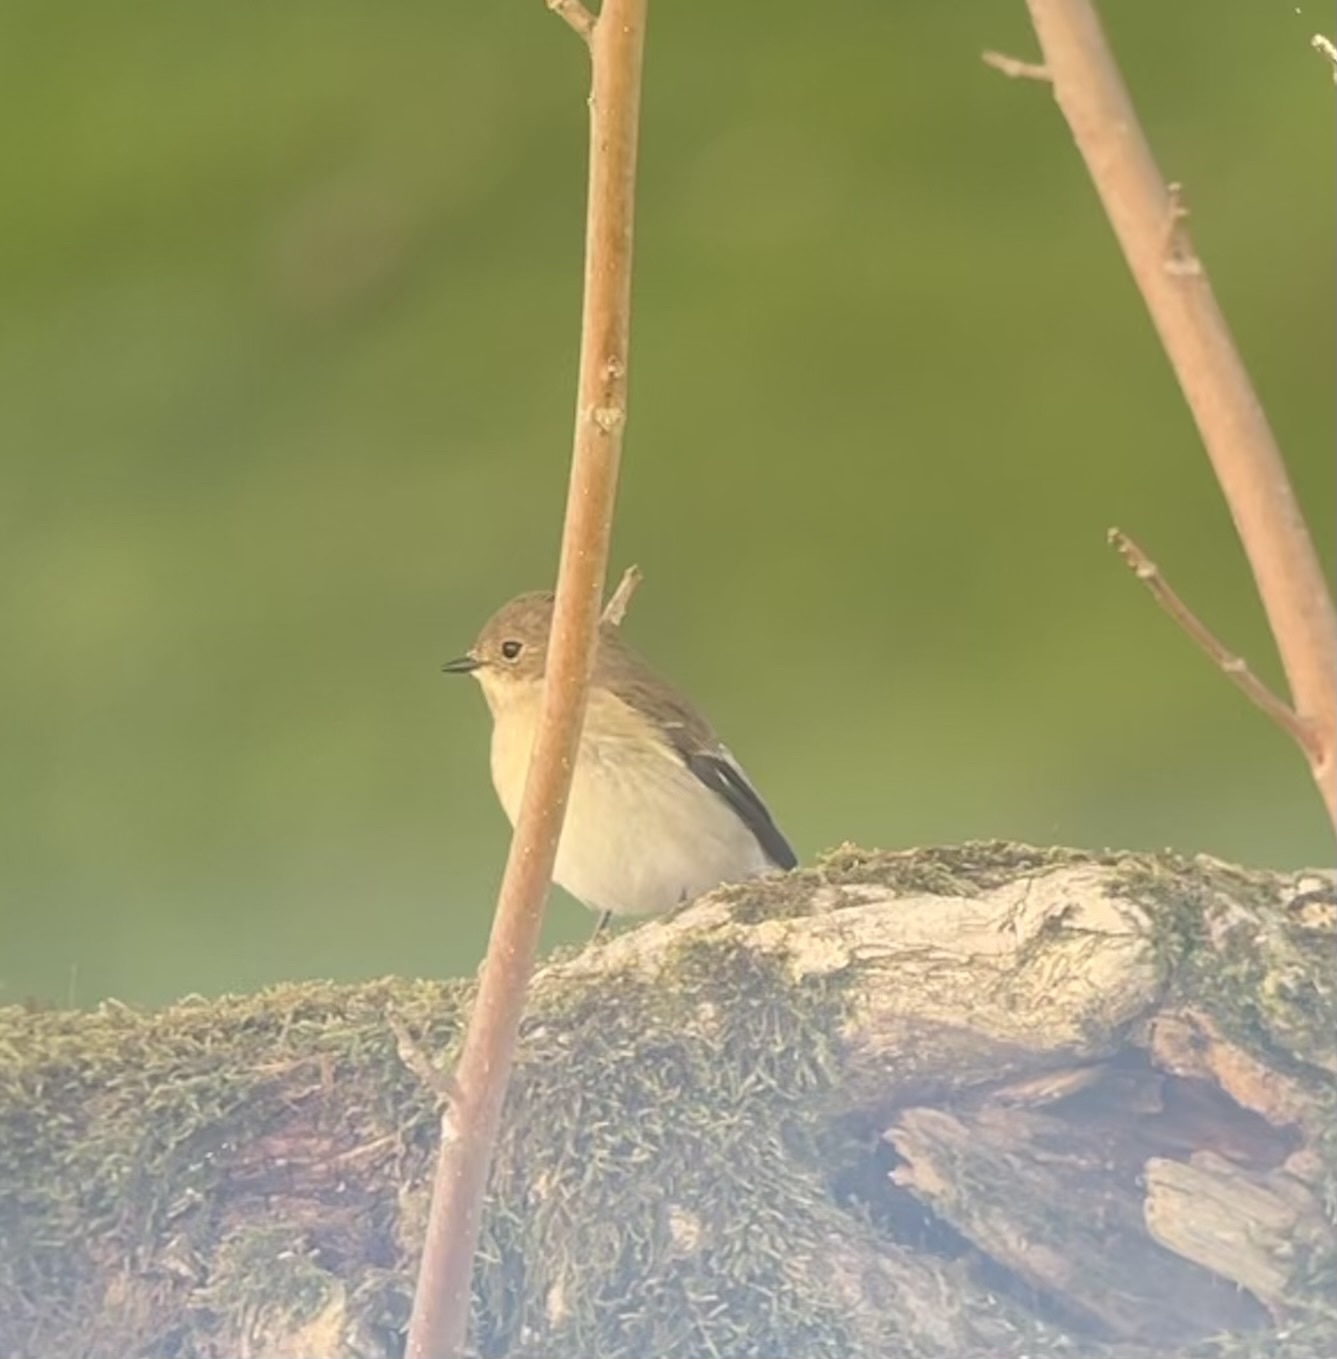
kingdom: Animalia
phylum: Chordata
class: Aves
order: Passeriformes
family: Muscicapidae
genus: Ficedula
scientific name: Ficedula hypoleuca
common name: European pied flycatcher
